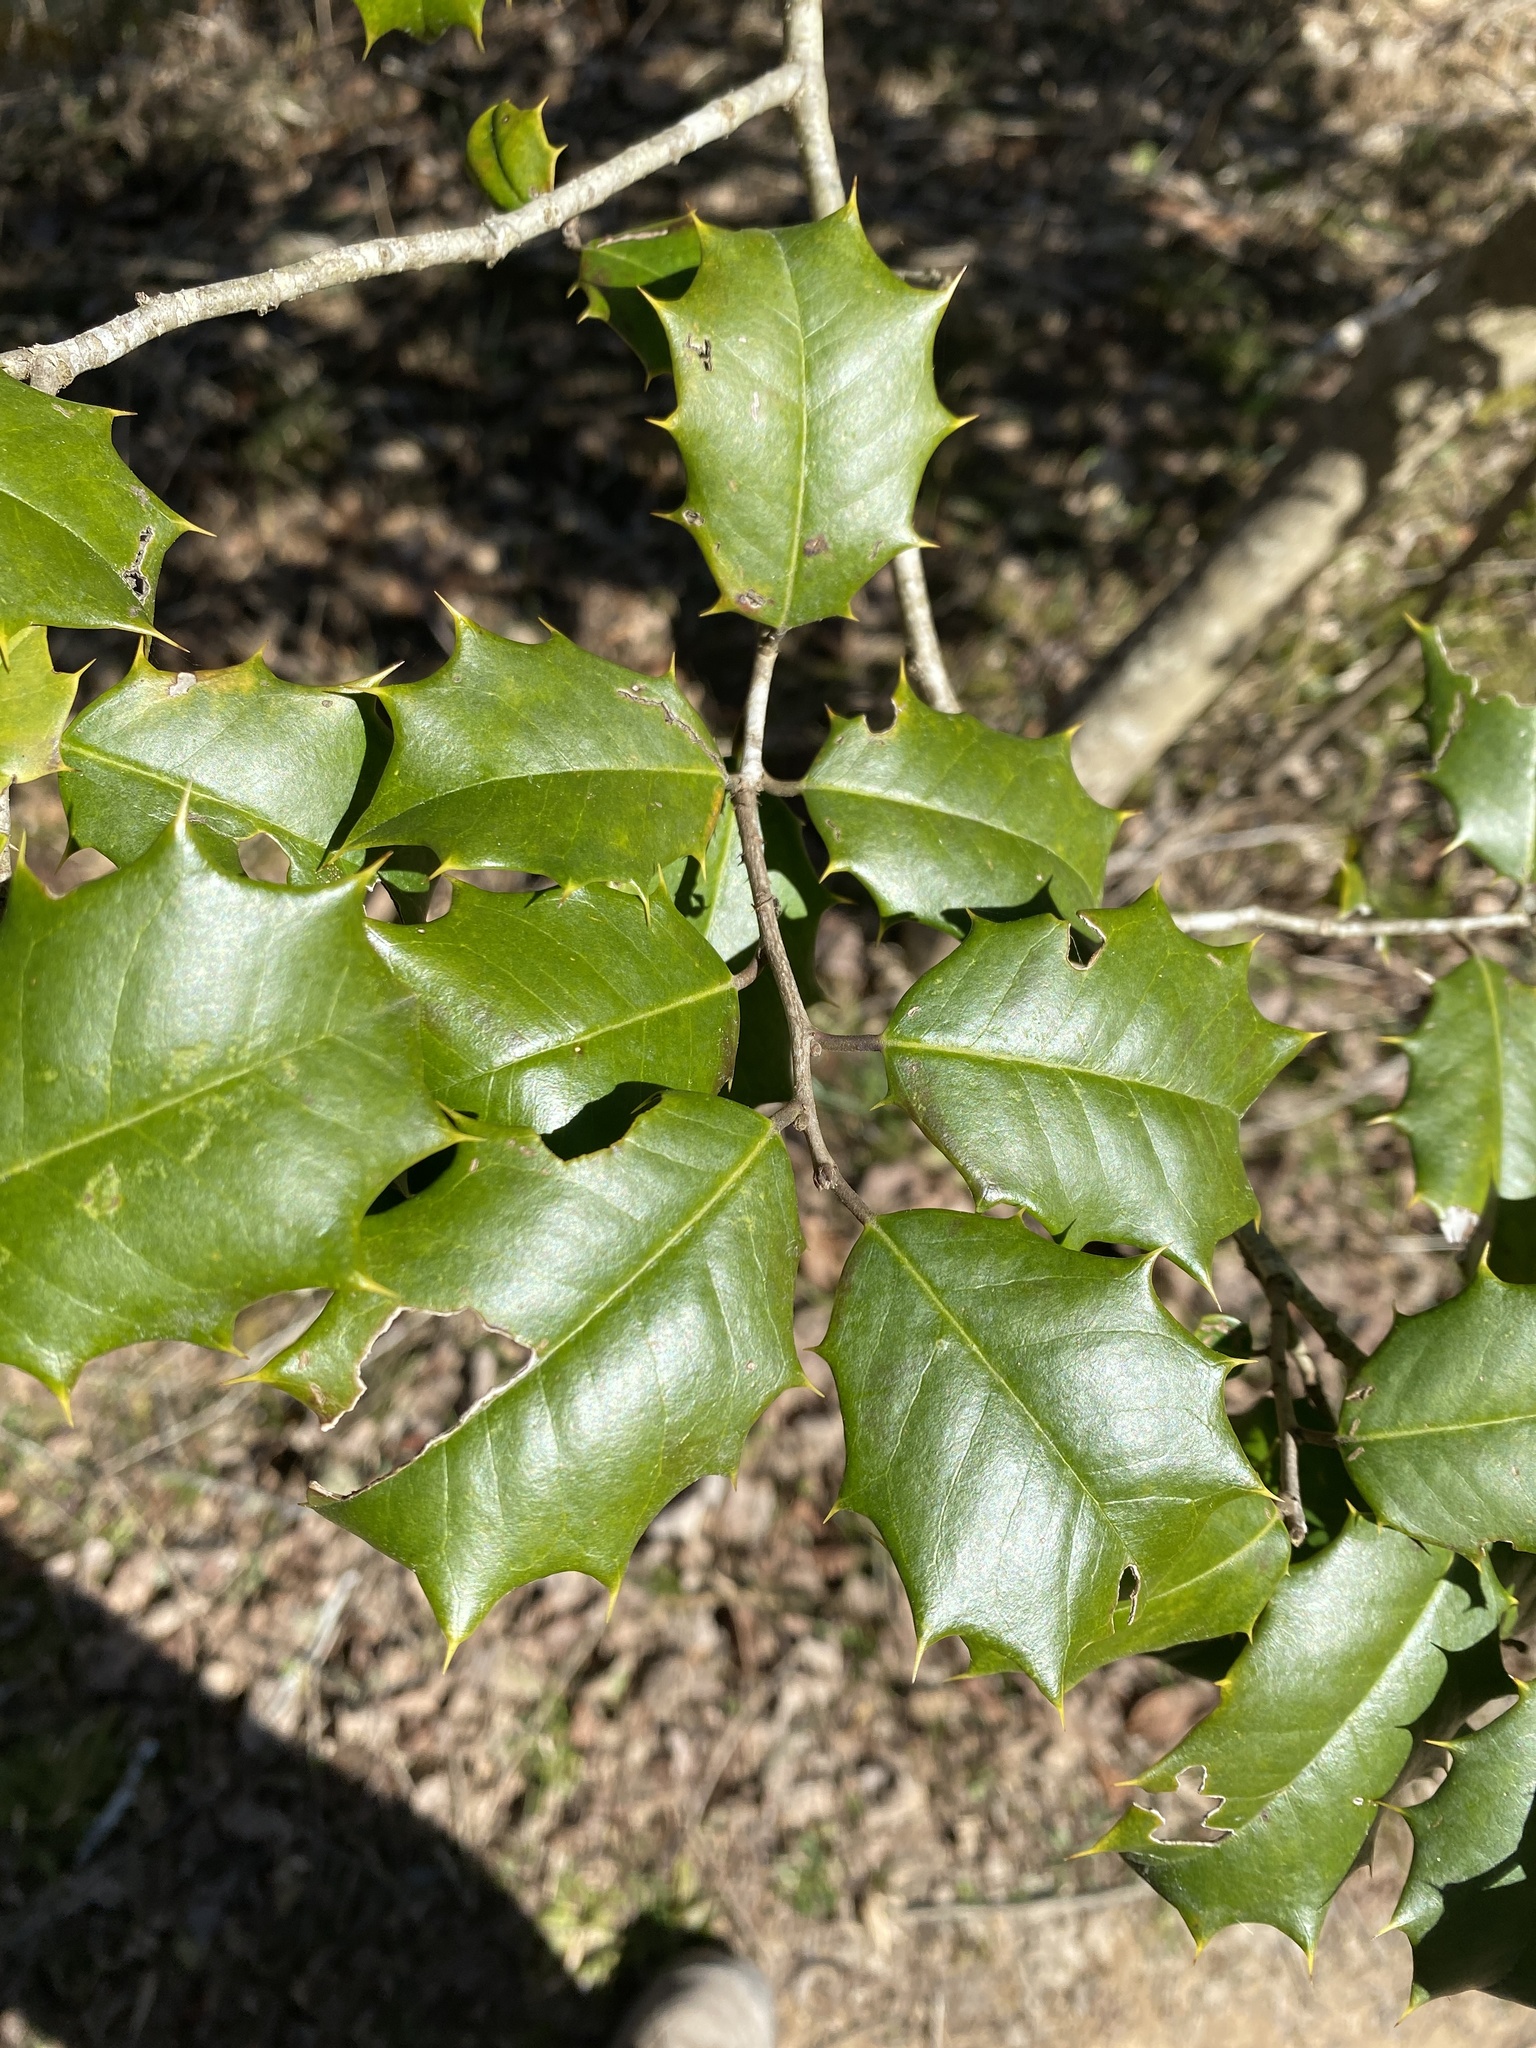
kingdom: Plantae
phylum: Tracheophyta
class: Magnoliopsida
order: Aquifoliales
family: Aquifoliaceae
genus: Ilex
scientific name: Ilex opaca
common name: American holly
